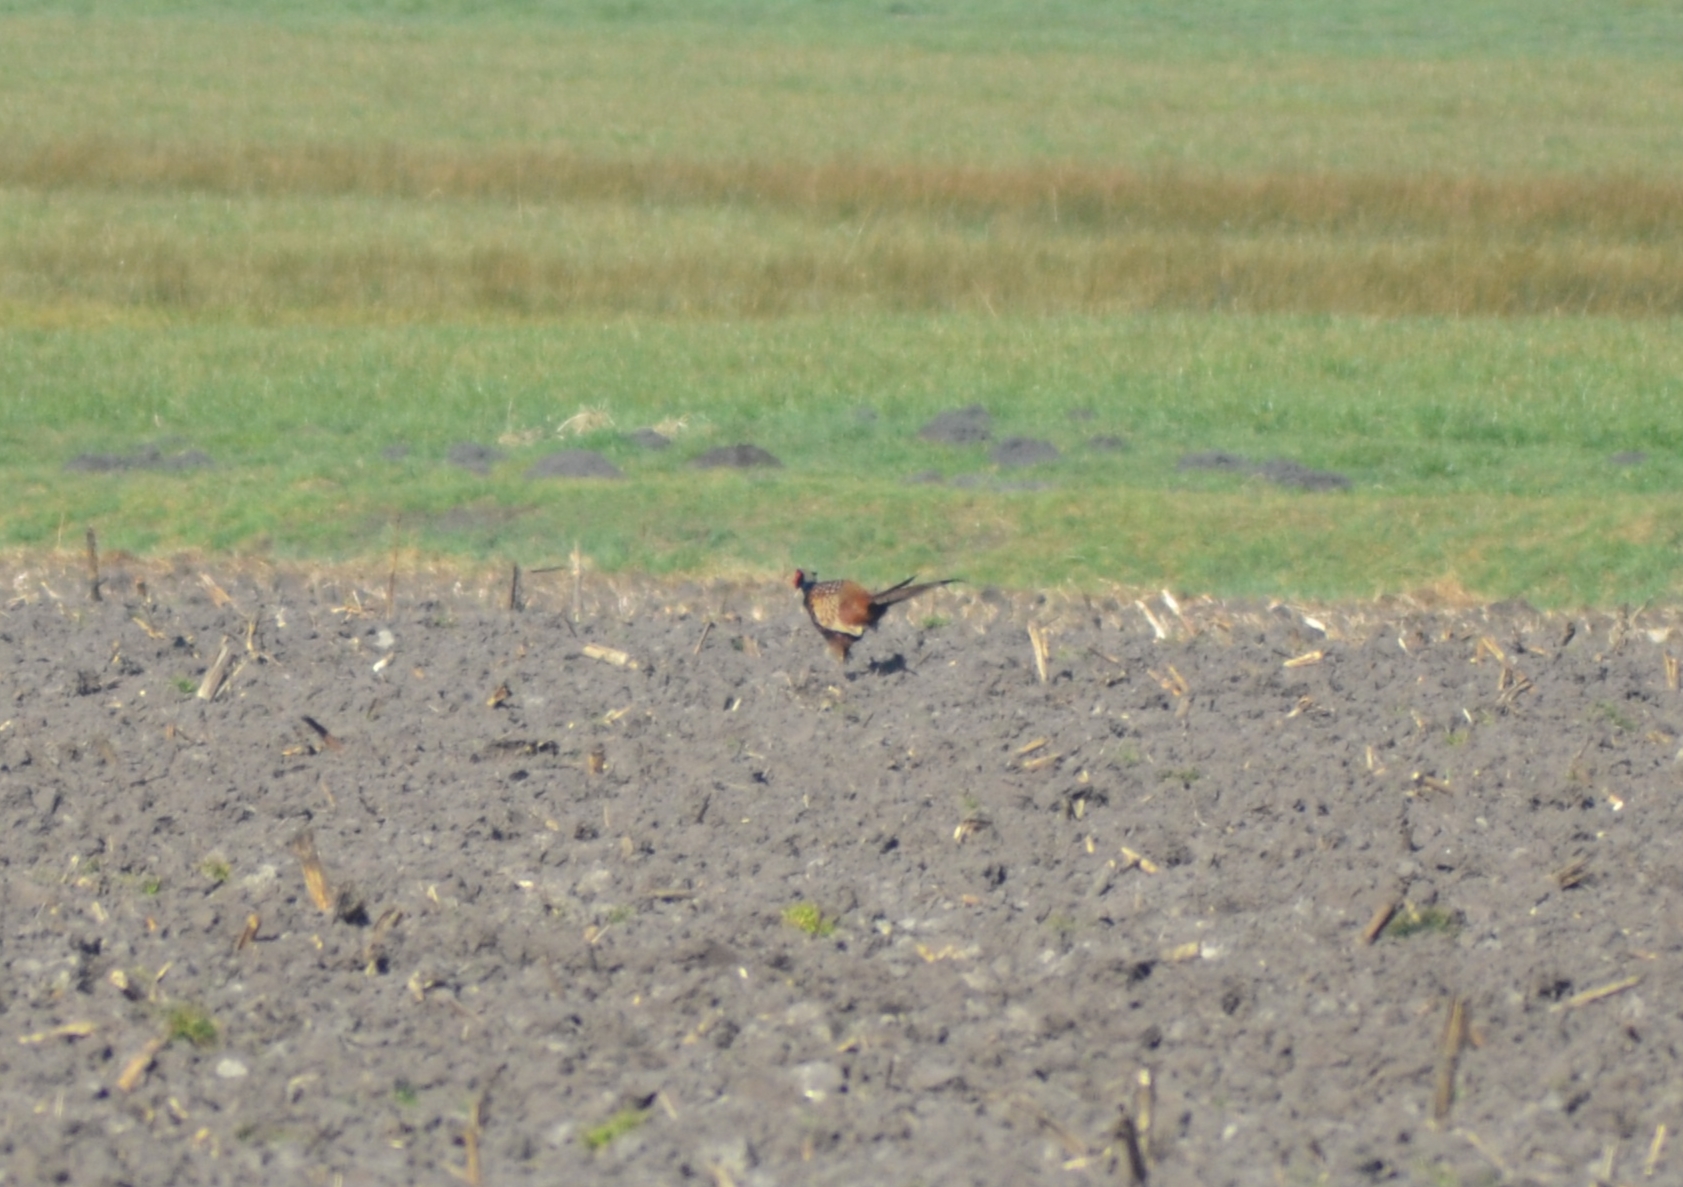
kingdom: Animalia
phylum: Chordata
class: Aves
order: Galliformes
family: Phasianidae
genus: Phasianus
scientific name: Phasianus colchicus
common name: Common pheasant
